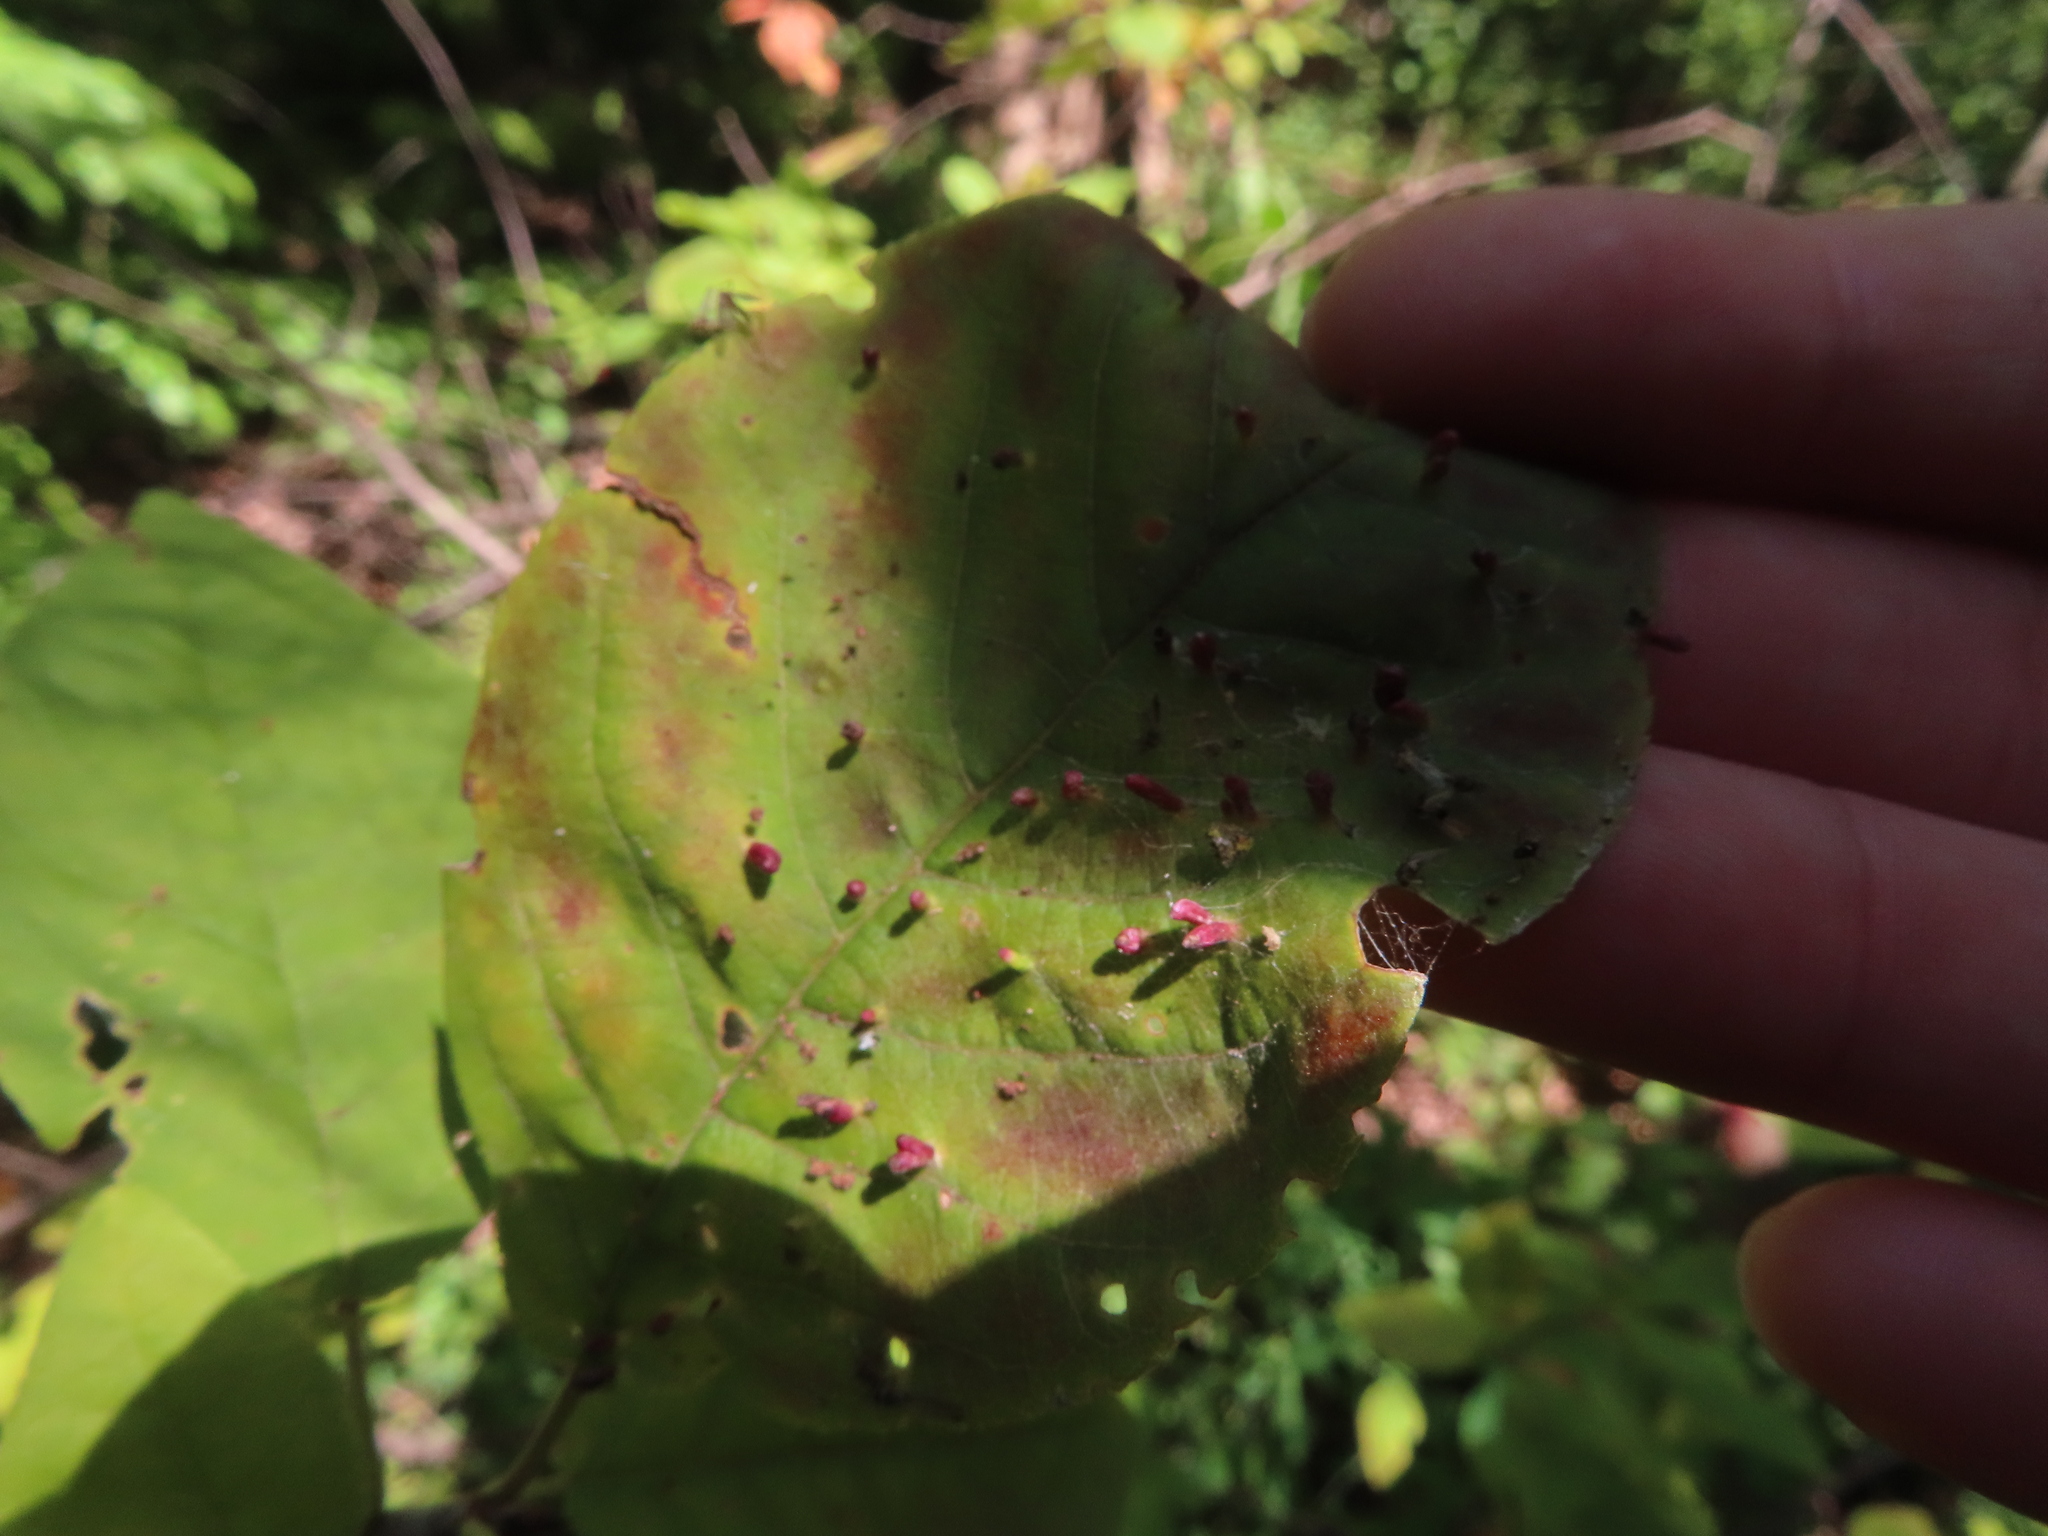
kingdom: Animalia
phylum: Arthropoda
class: Arachnida
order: Trombidiformes
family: Eriophyidae
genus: Eriophyes
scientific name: Eriophyes emarginatae
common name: Plum leaf gall mite
